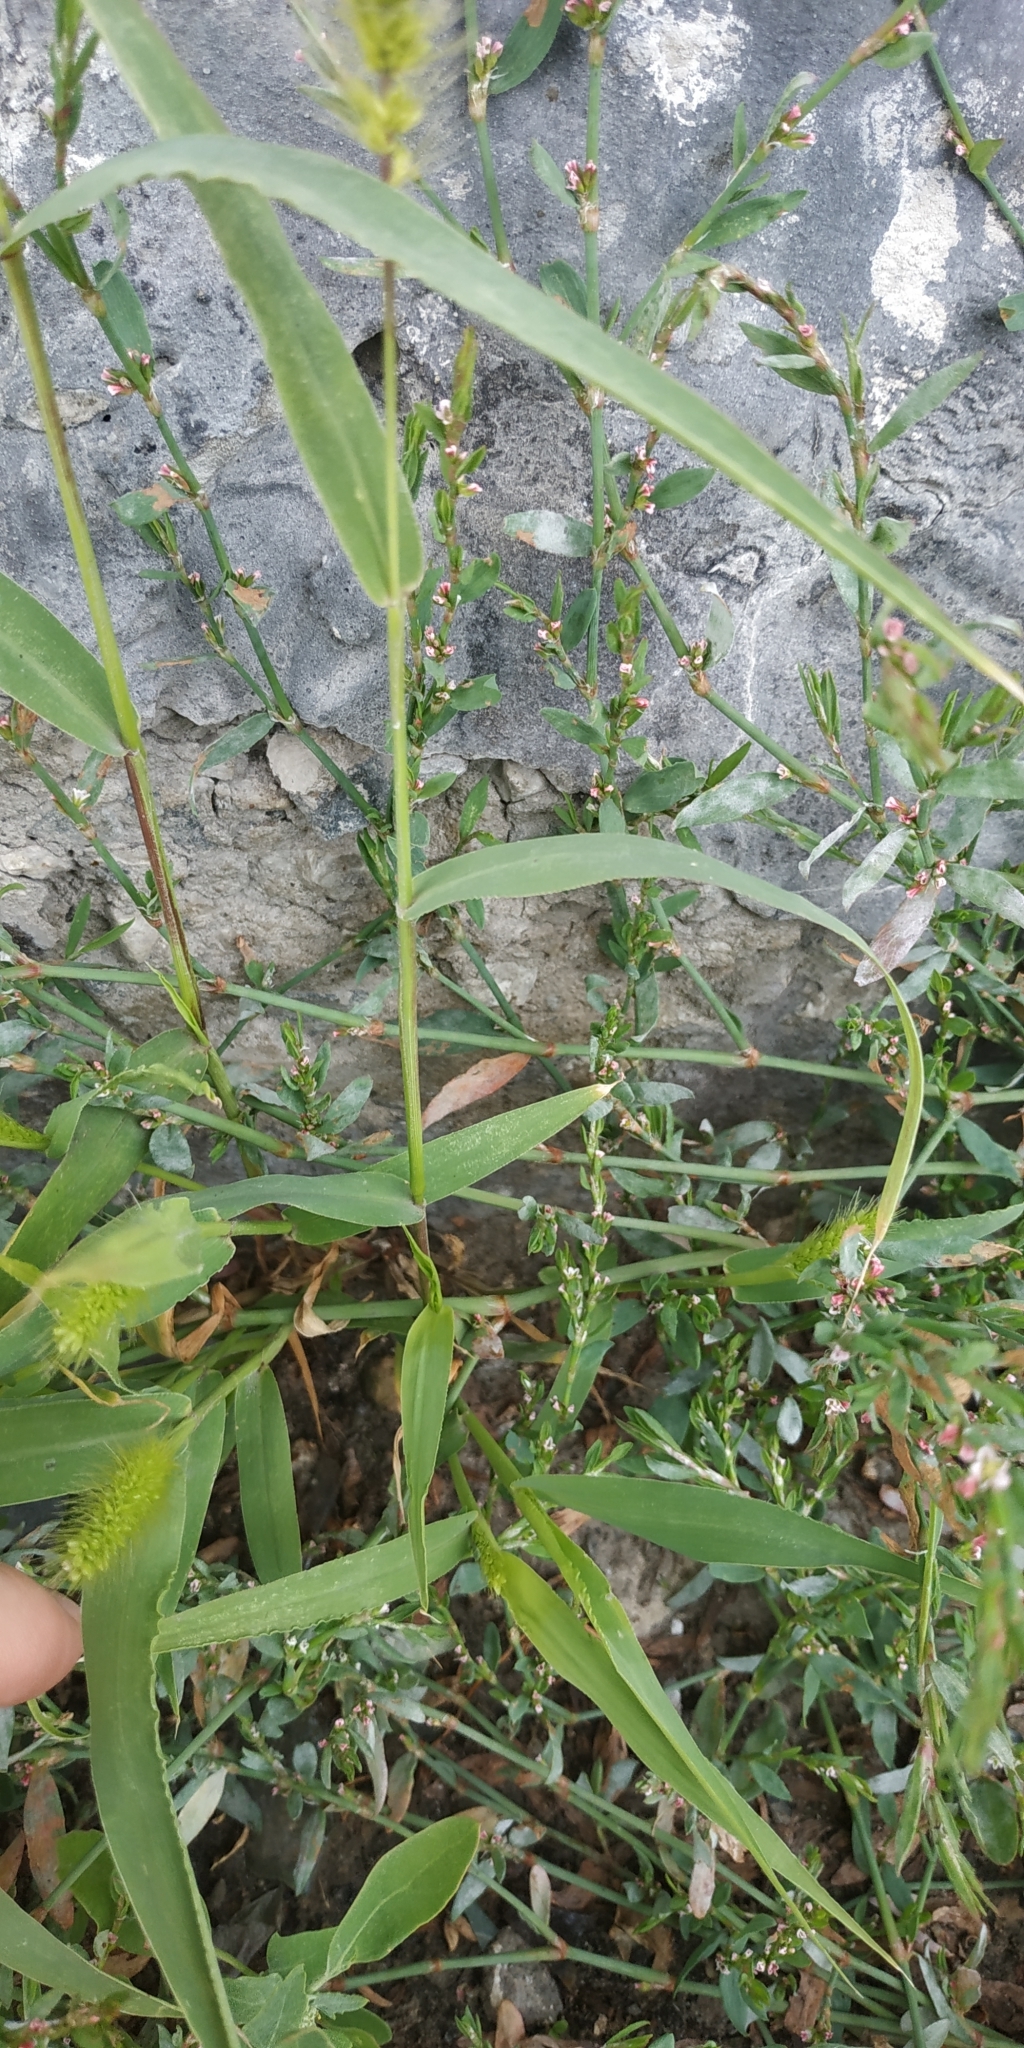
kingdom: Plantae
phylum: Tracheophyta
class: Liliopsida
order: Poales
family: Poaceae
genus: Setaria
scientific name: Setaria viridis
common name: Green bristlegrass
